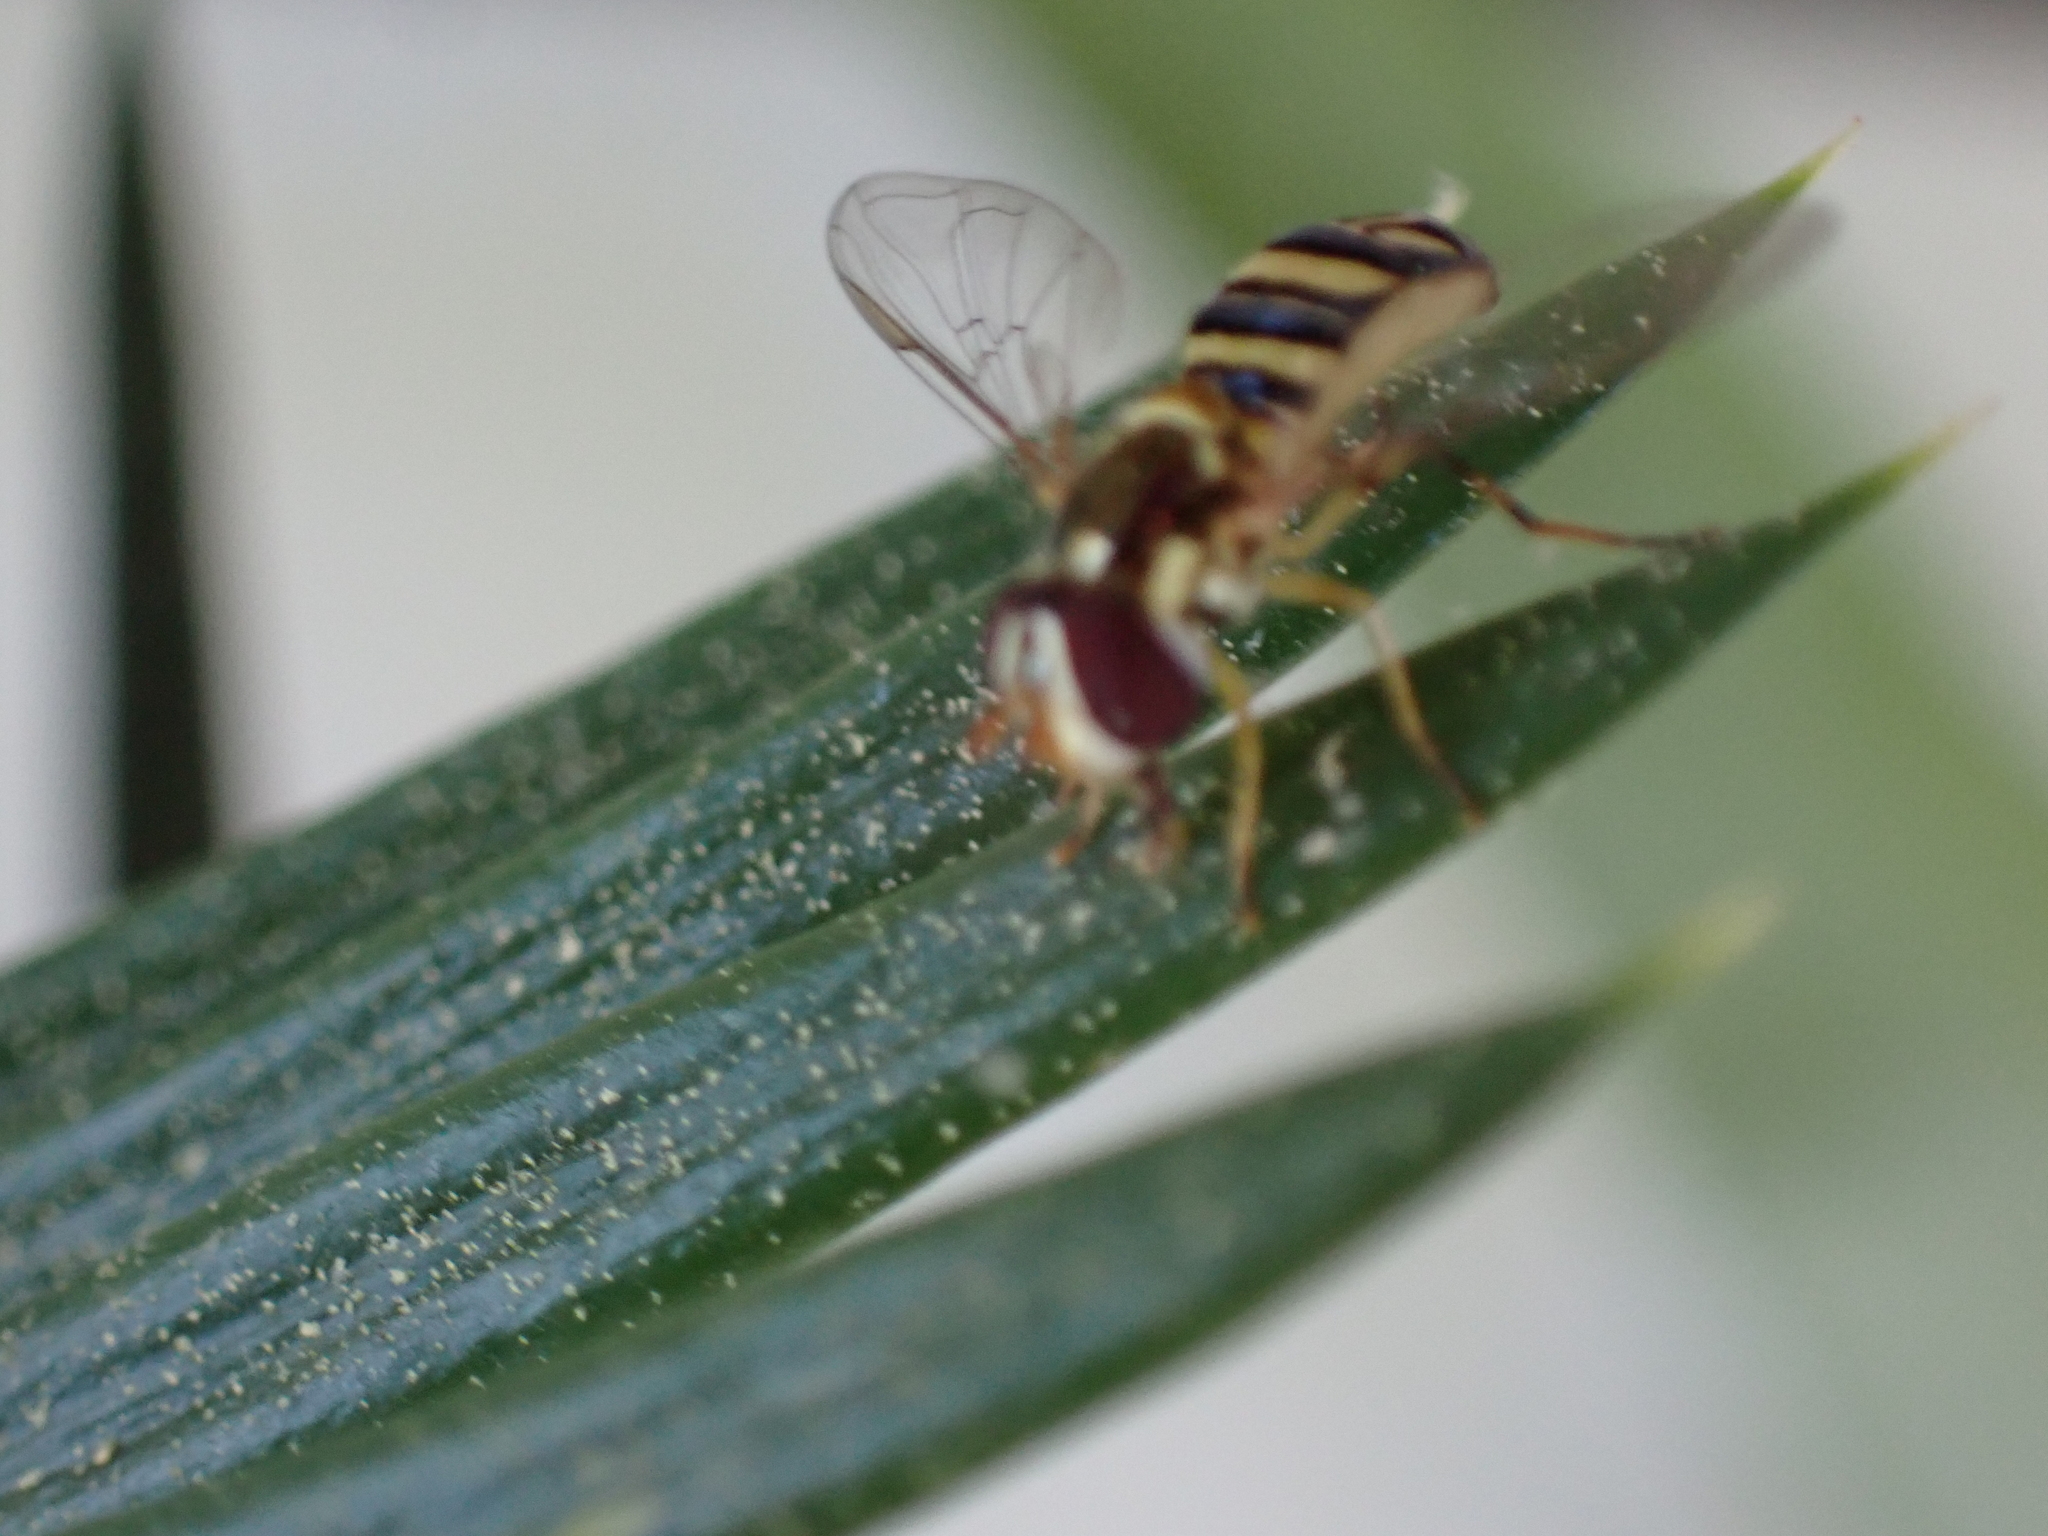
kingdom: Animalia
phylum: Arthropoda
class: Insecta
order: Diptera
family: Syrphidae
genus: Allograpta
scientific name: Allograpta obliqua
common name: Common oblique syrphid
